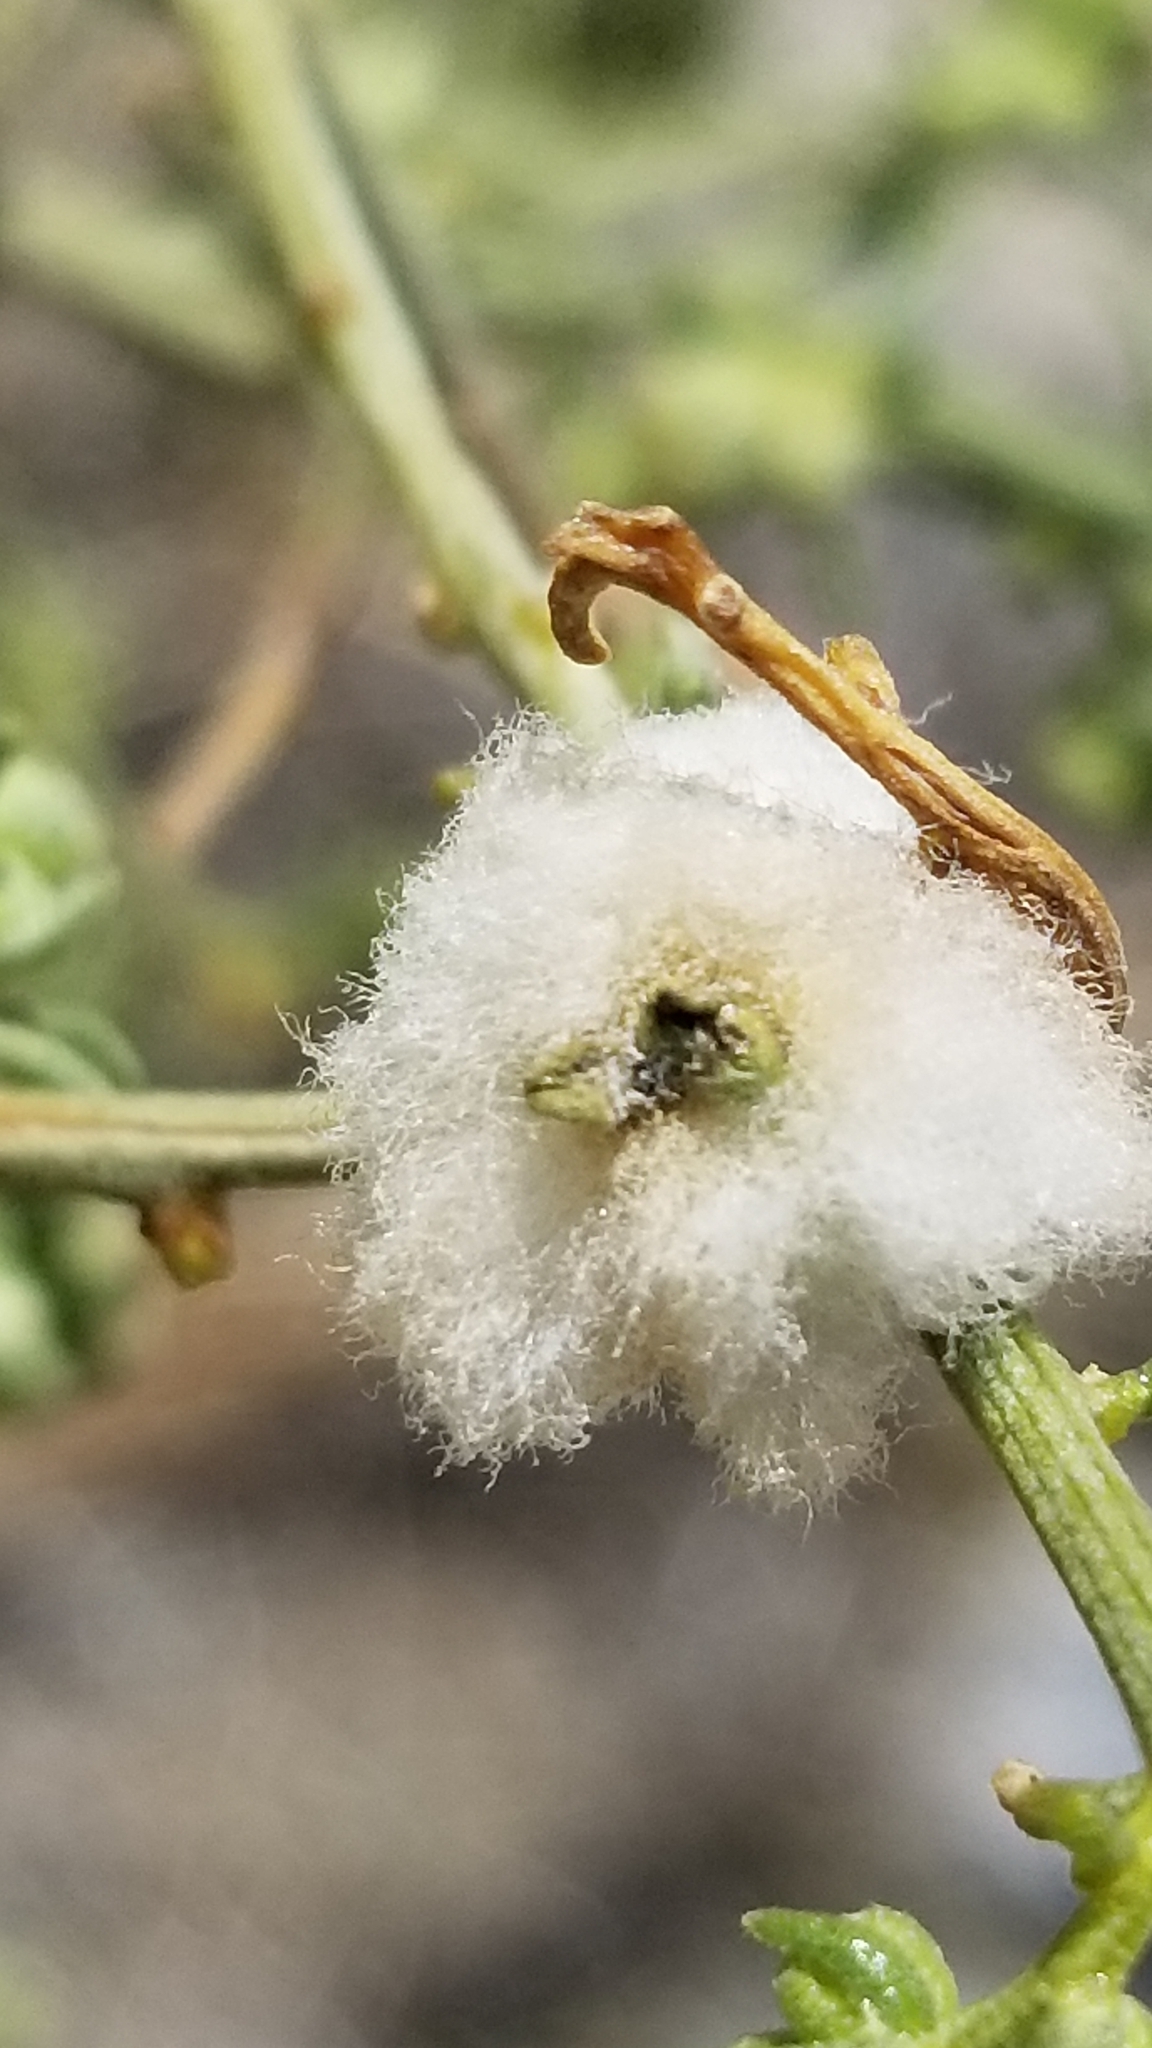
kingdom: Plantae
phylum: Tracheophyta
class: Magnoliopsida
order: Asterales
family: Asteraceae
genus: Ambrosia
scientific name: Ambrosia salsola
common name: Burrobrush
